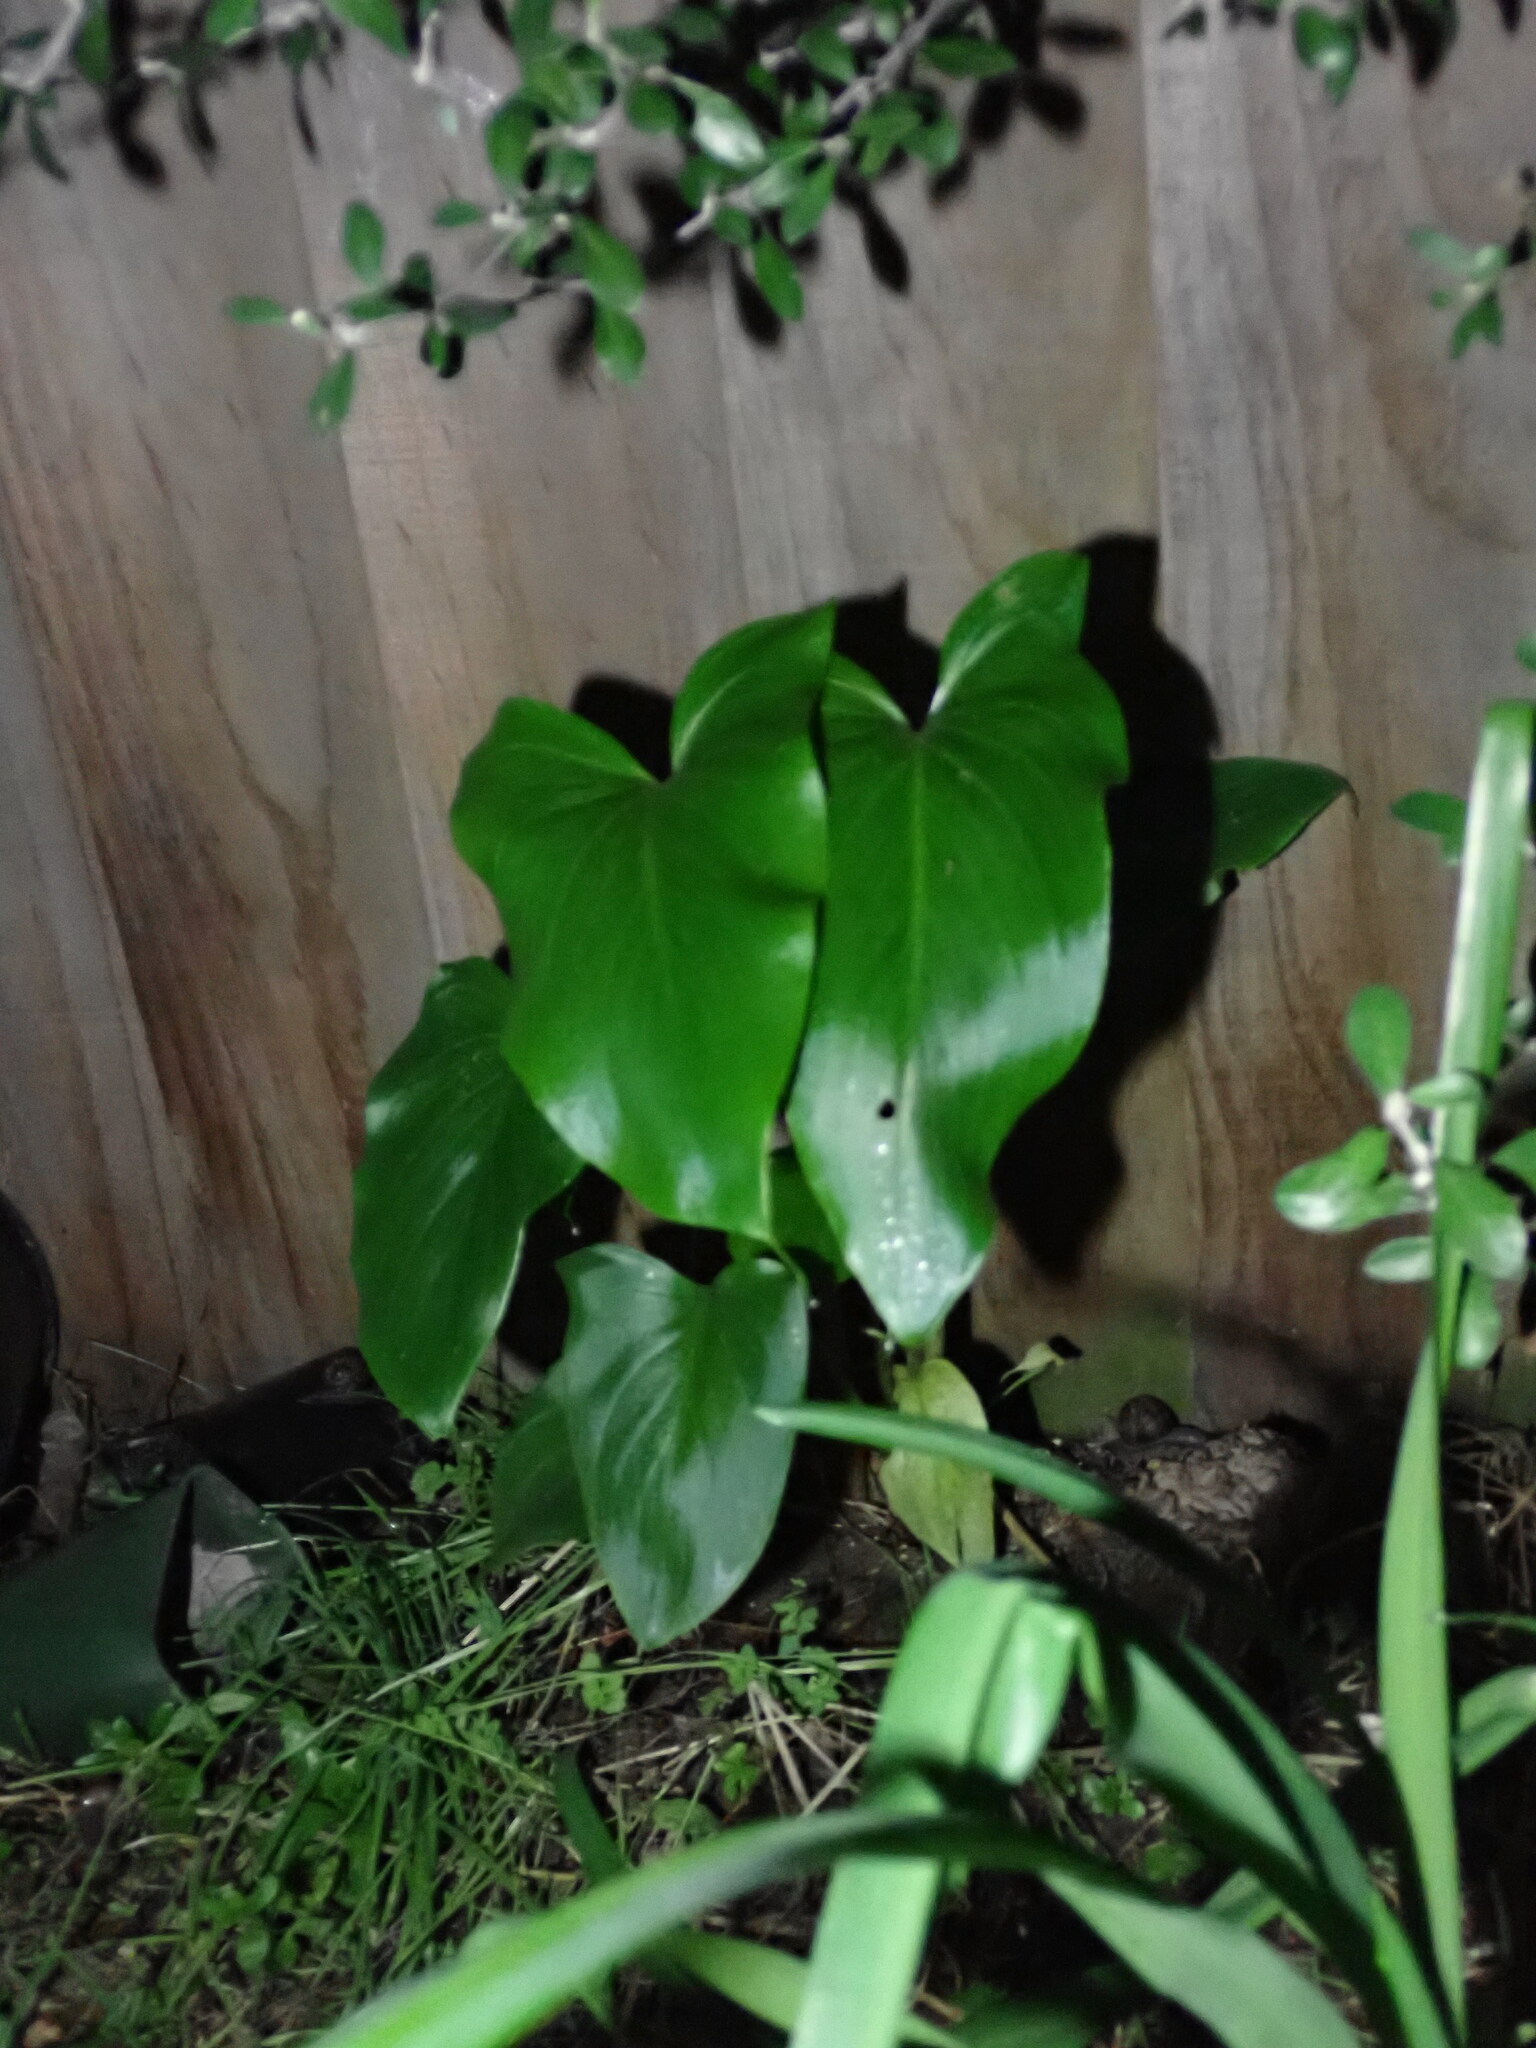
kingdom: Plantae
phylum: Tracheophyta
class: Liliopsida
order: Alismatales
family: Araceae
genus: Zantedeschia
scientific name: Zantedeschia aethiopica
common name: Altar-lily
